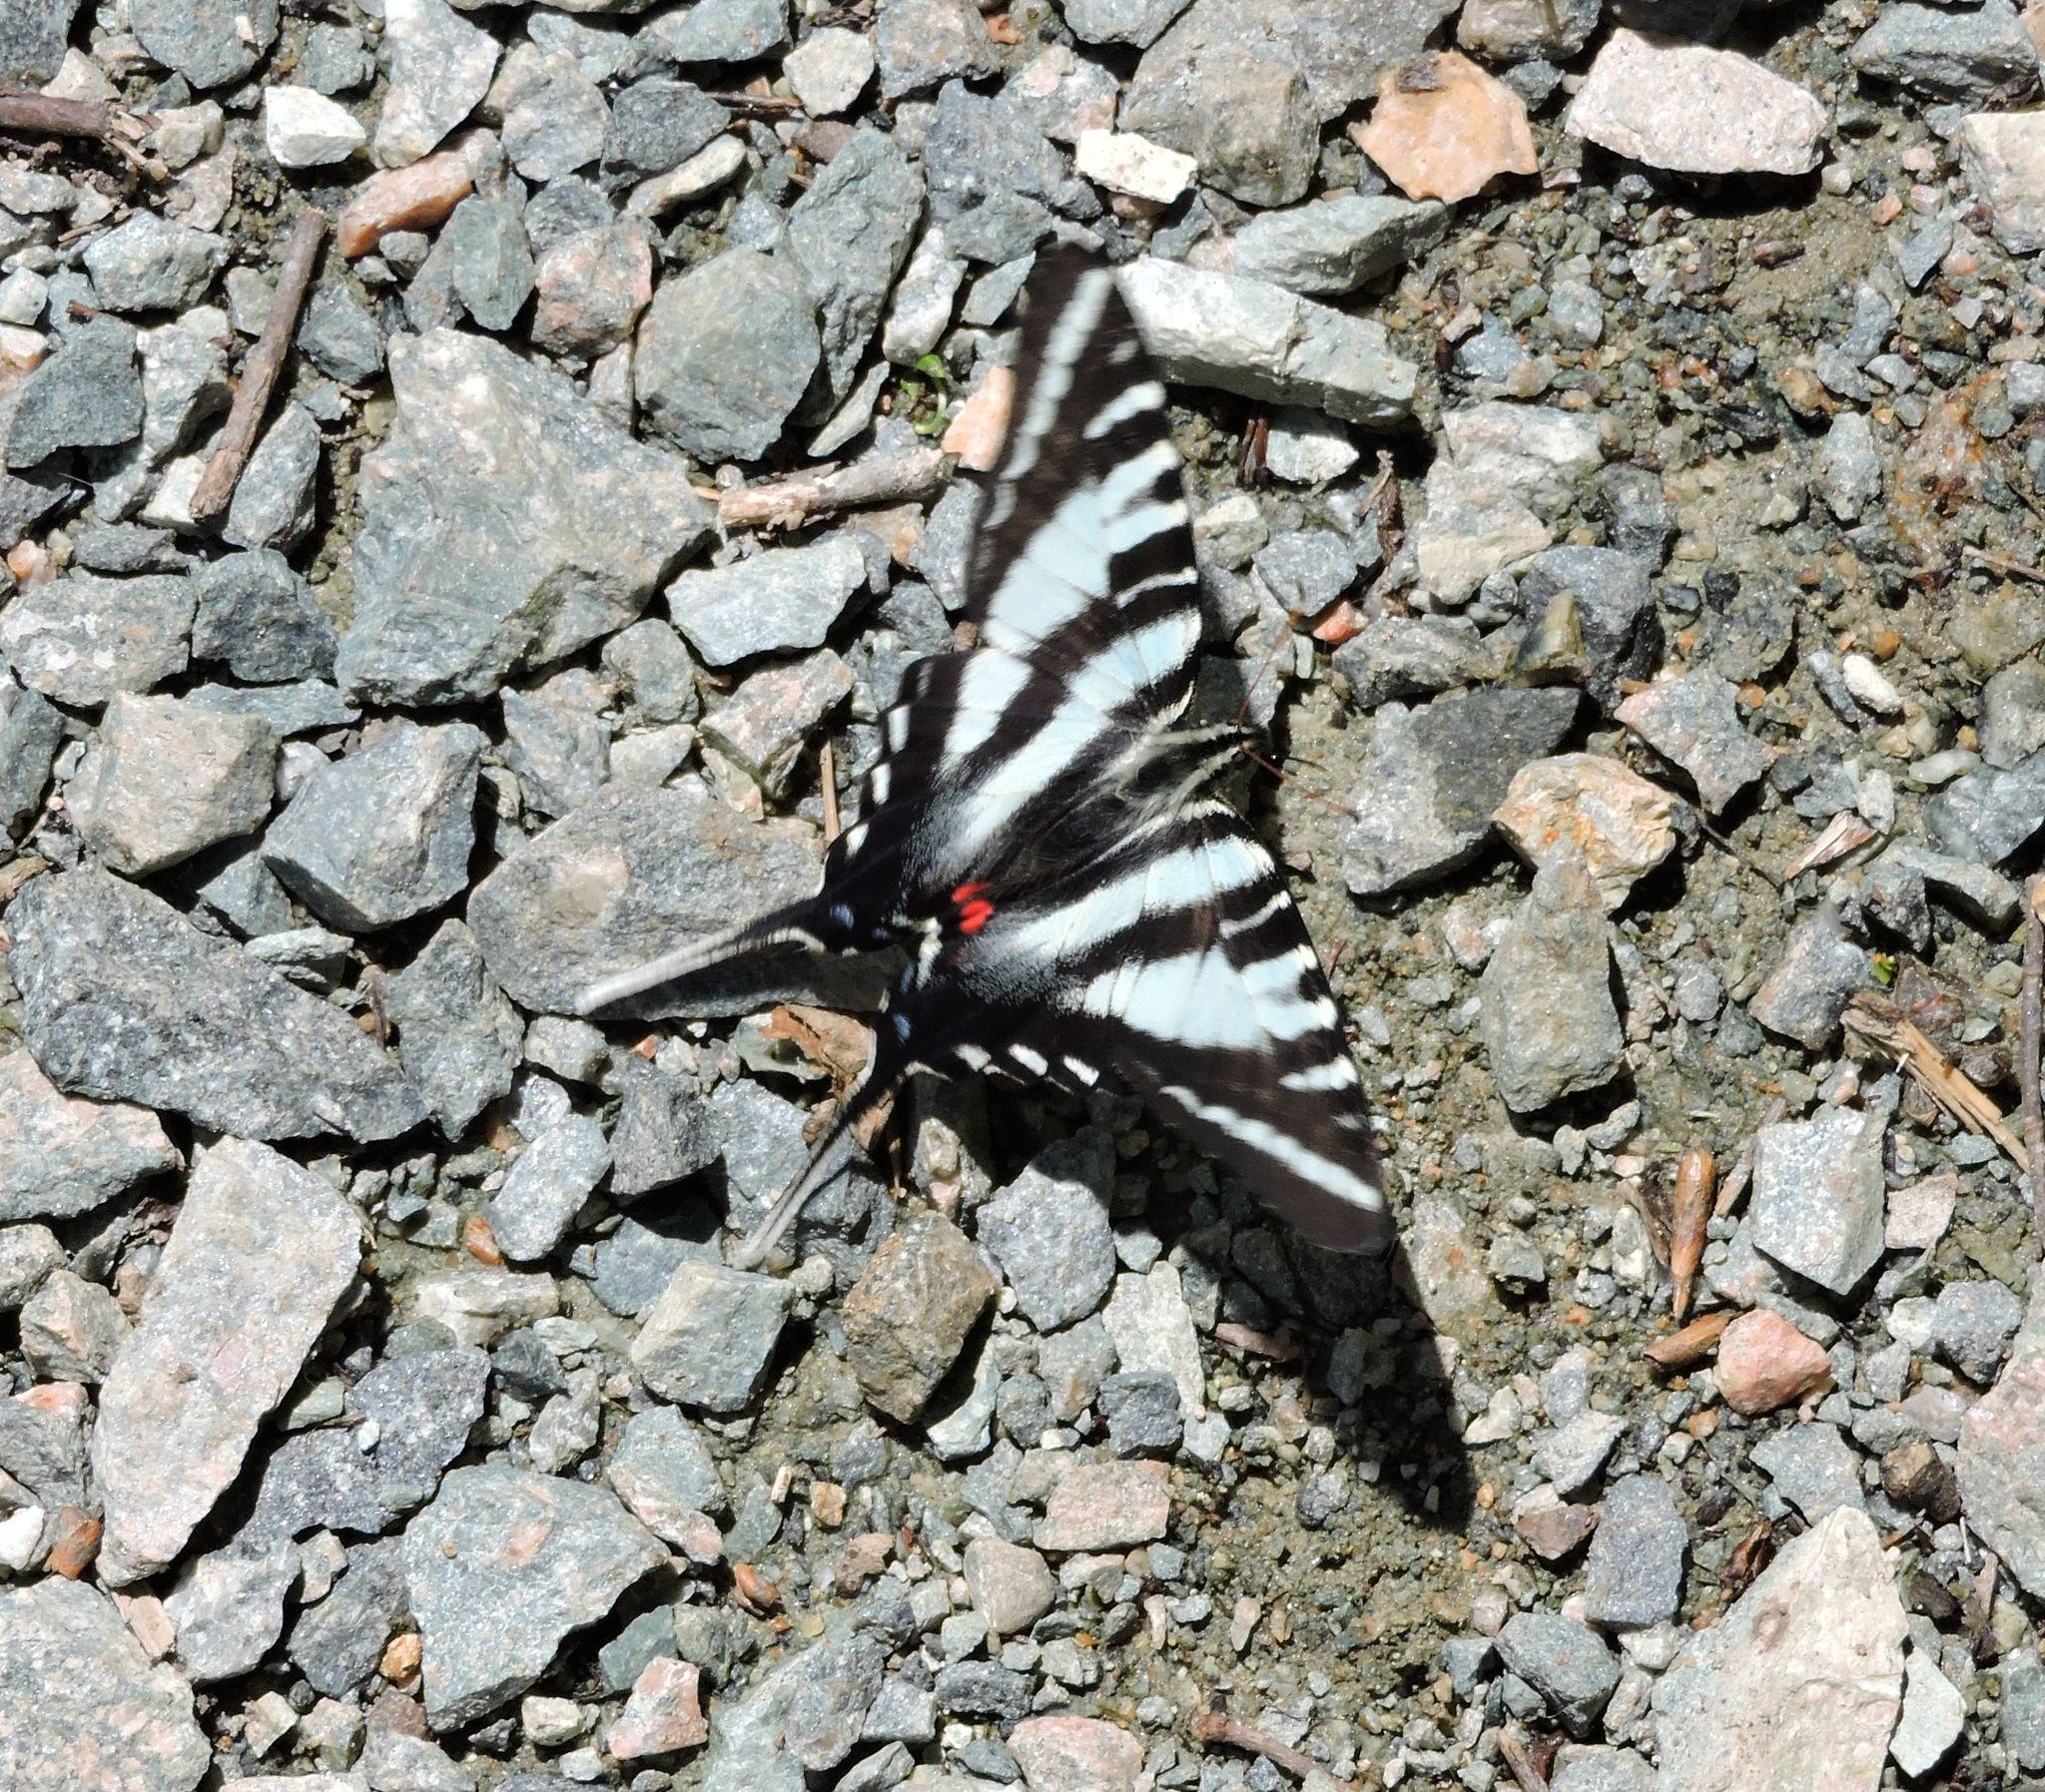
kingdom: Animalia
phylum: Arthropoda
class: Insecta
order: Lepidoptera
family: Papilionidae
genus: Protographium
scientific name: Protographium marcellus
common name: Zebra swallowtail
